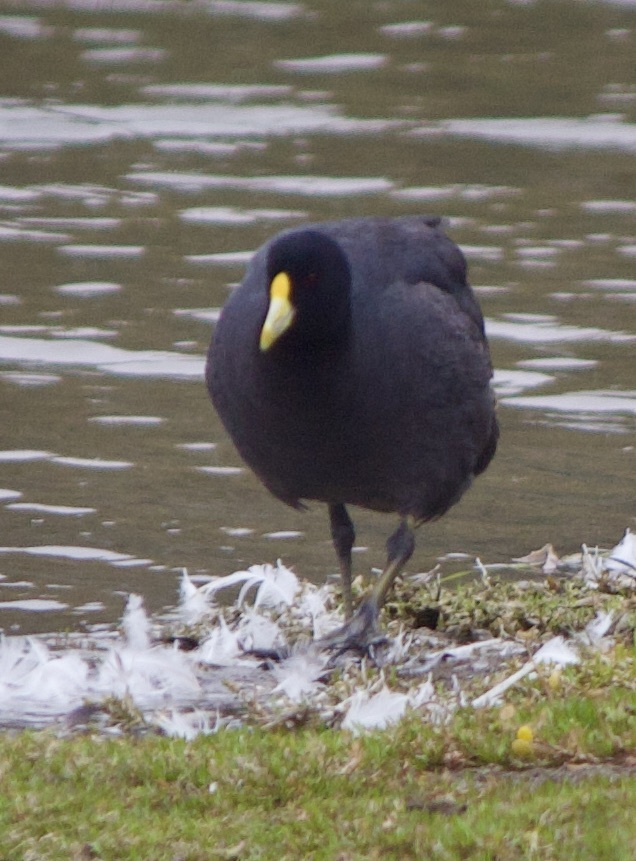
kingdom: Animalia
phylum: Chordata
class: Aves
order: Gruiformes
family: Rallidae
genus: Fulica
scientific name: Fulica leucoptera
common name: White-winged coot
